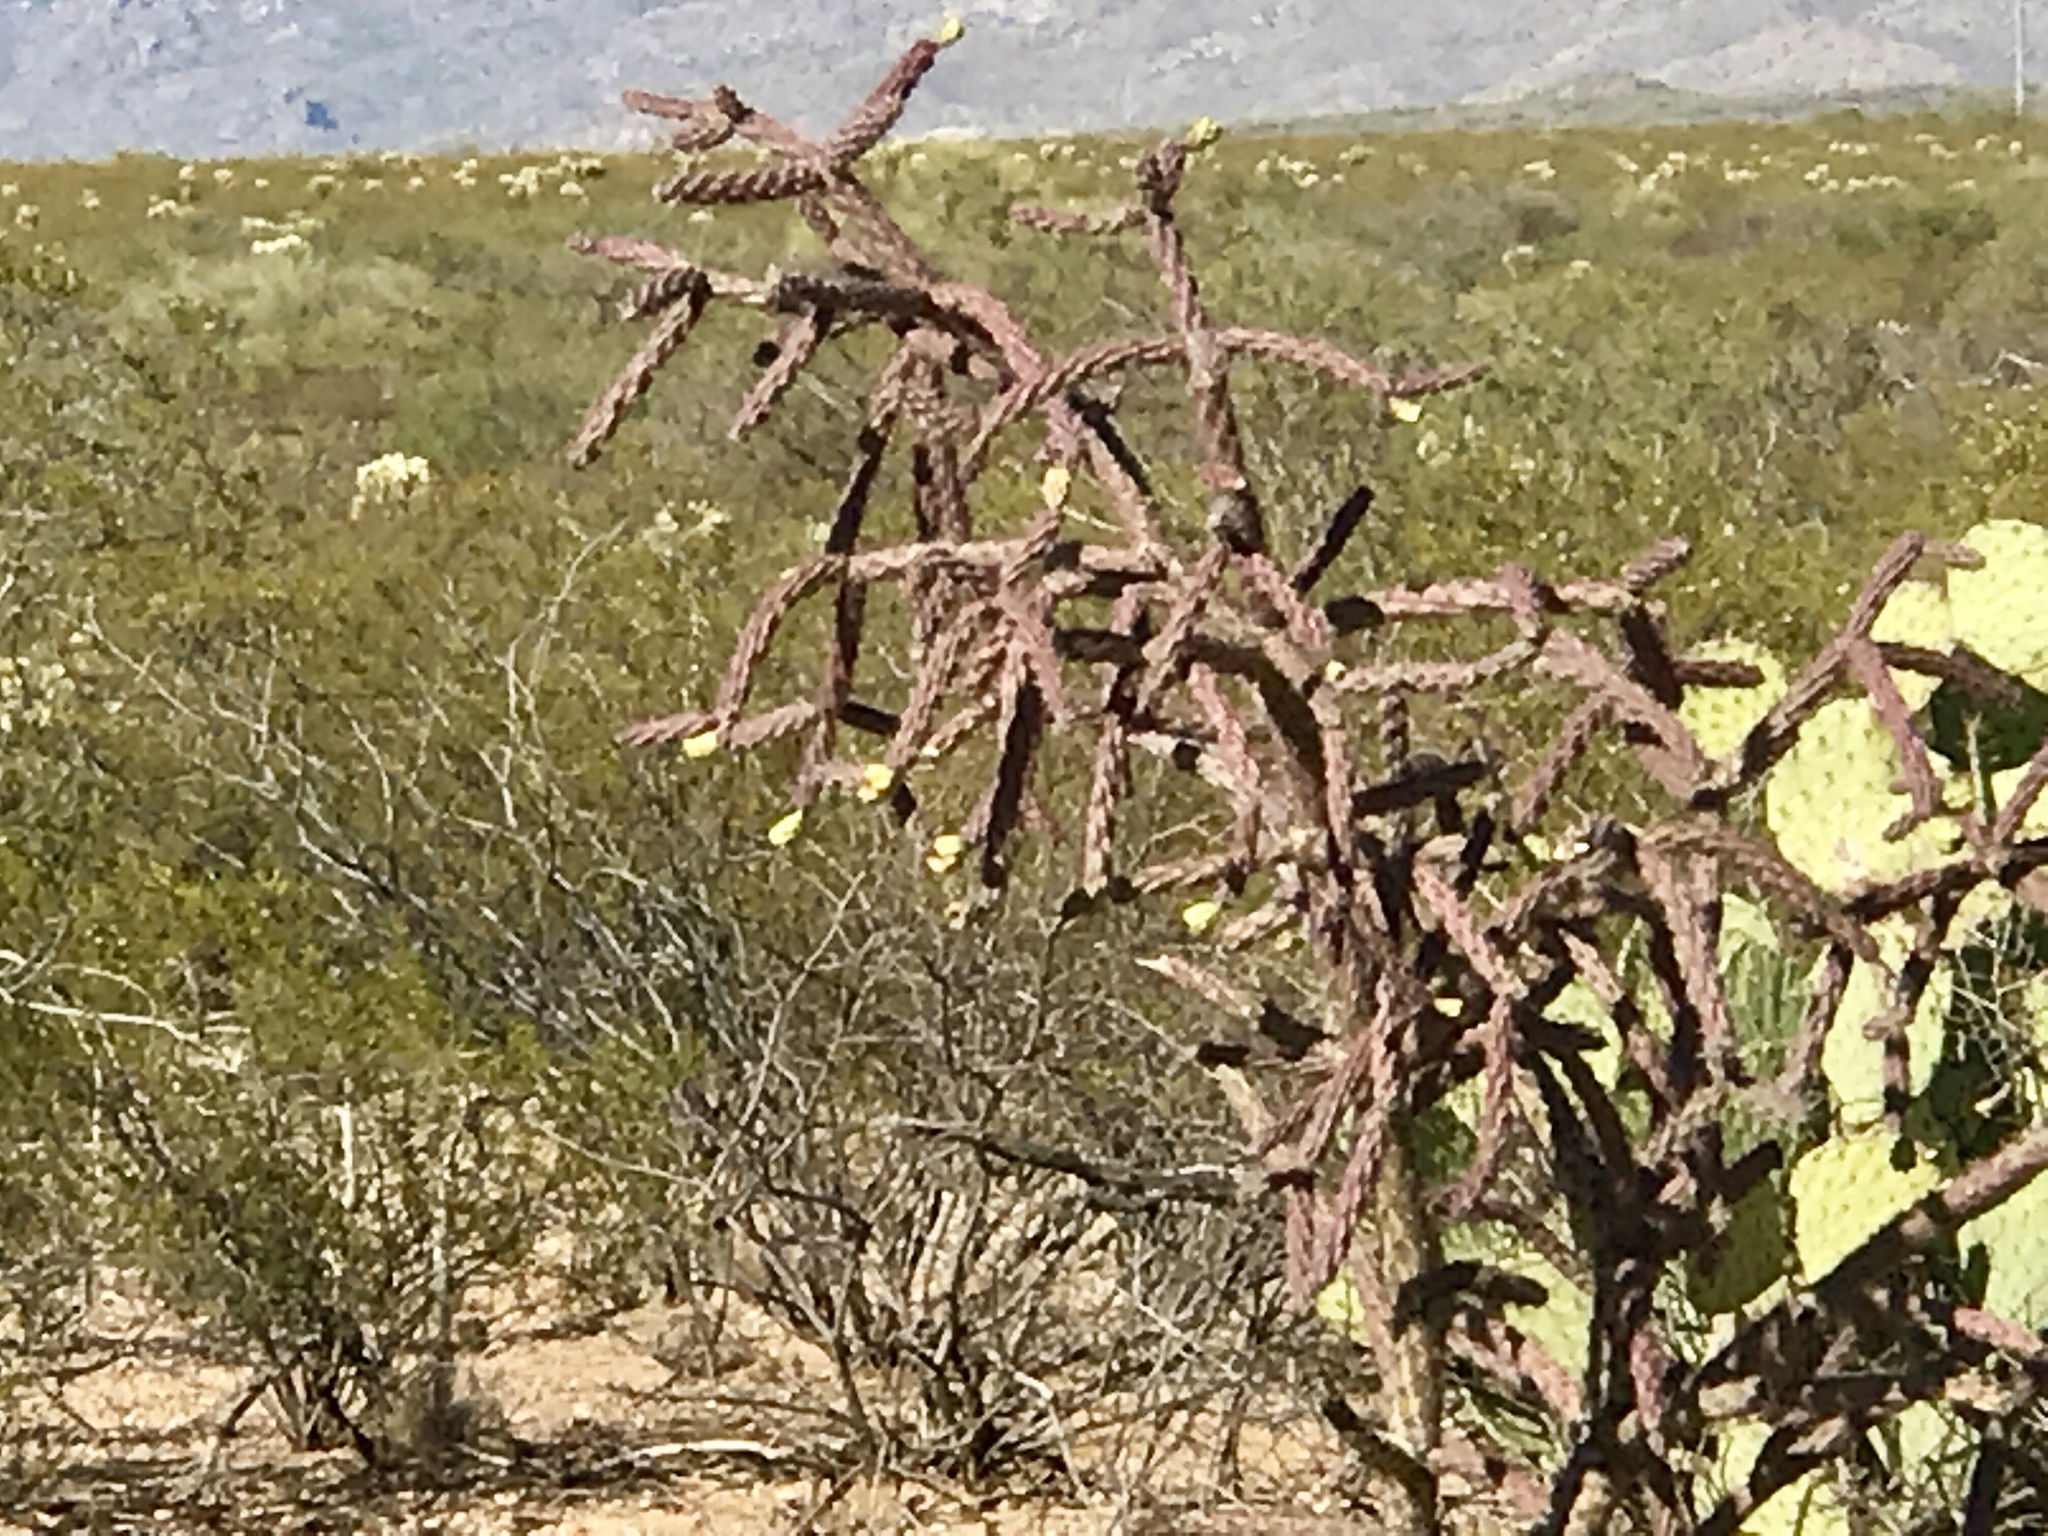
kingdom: Plantae
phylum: Tracheophyta
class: Magnoliopsida
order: Caryophyllales
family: Cactaceae
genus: Cylindropuntia
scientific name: Cylindropuntia thurberi
